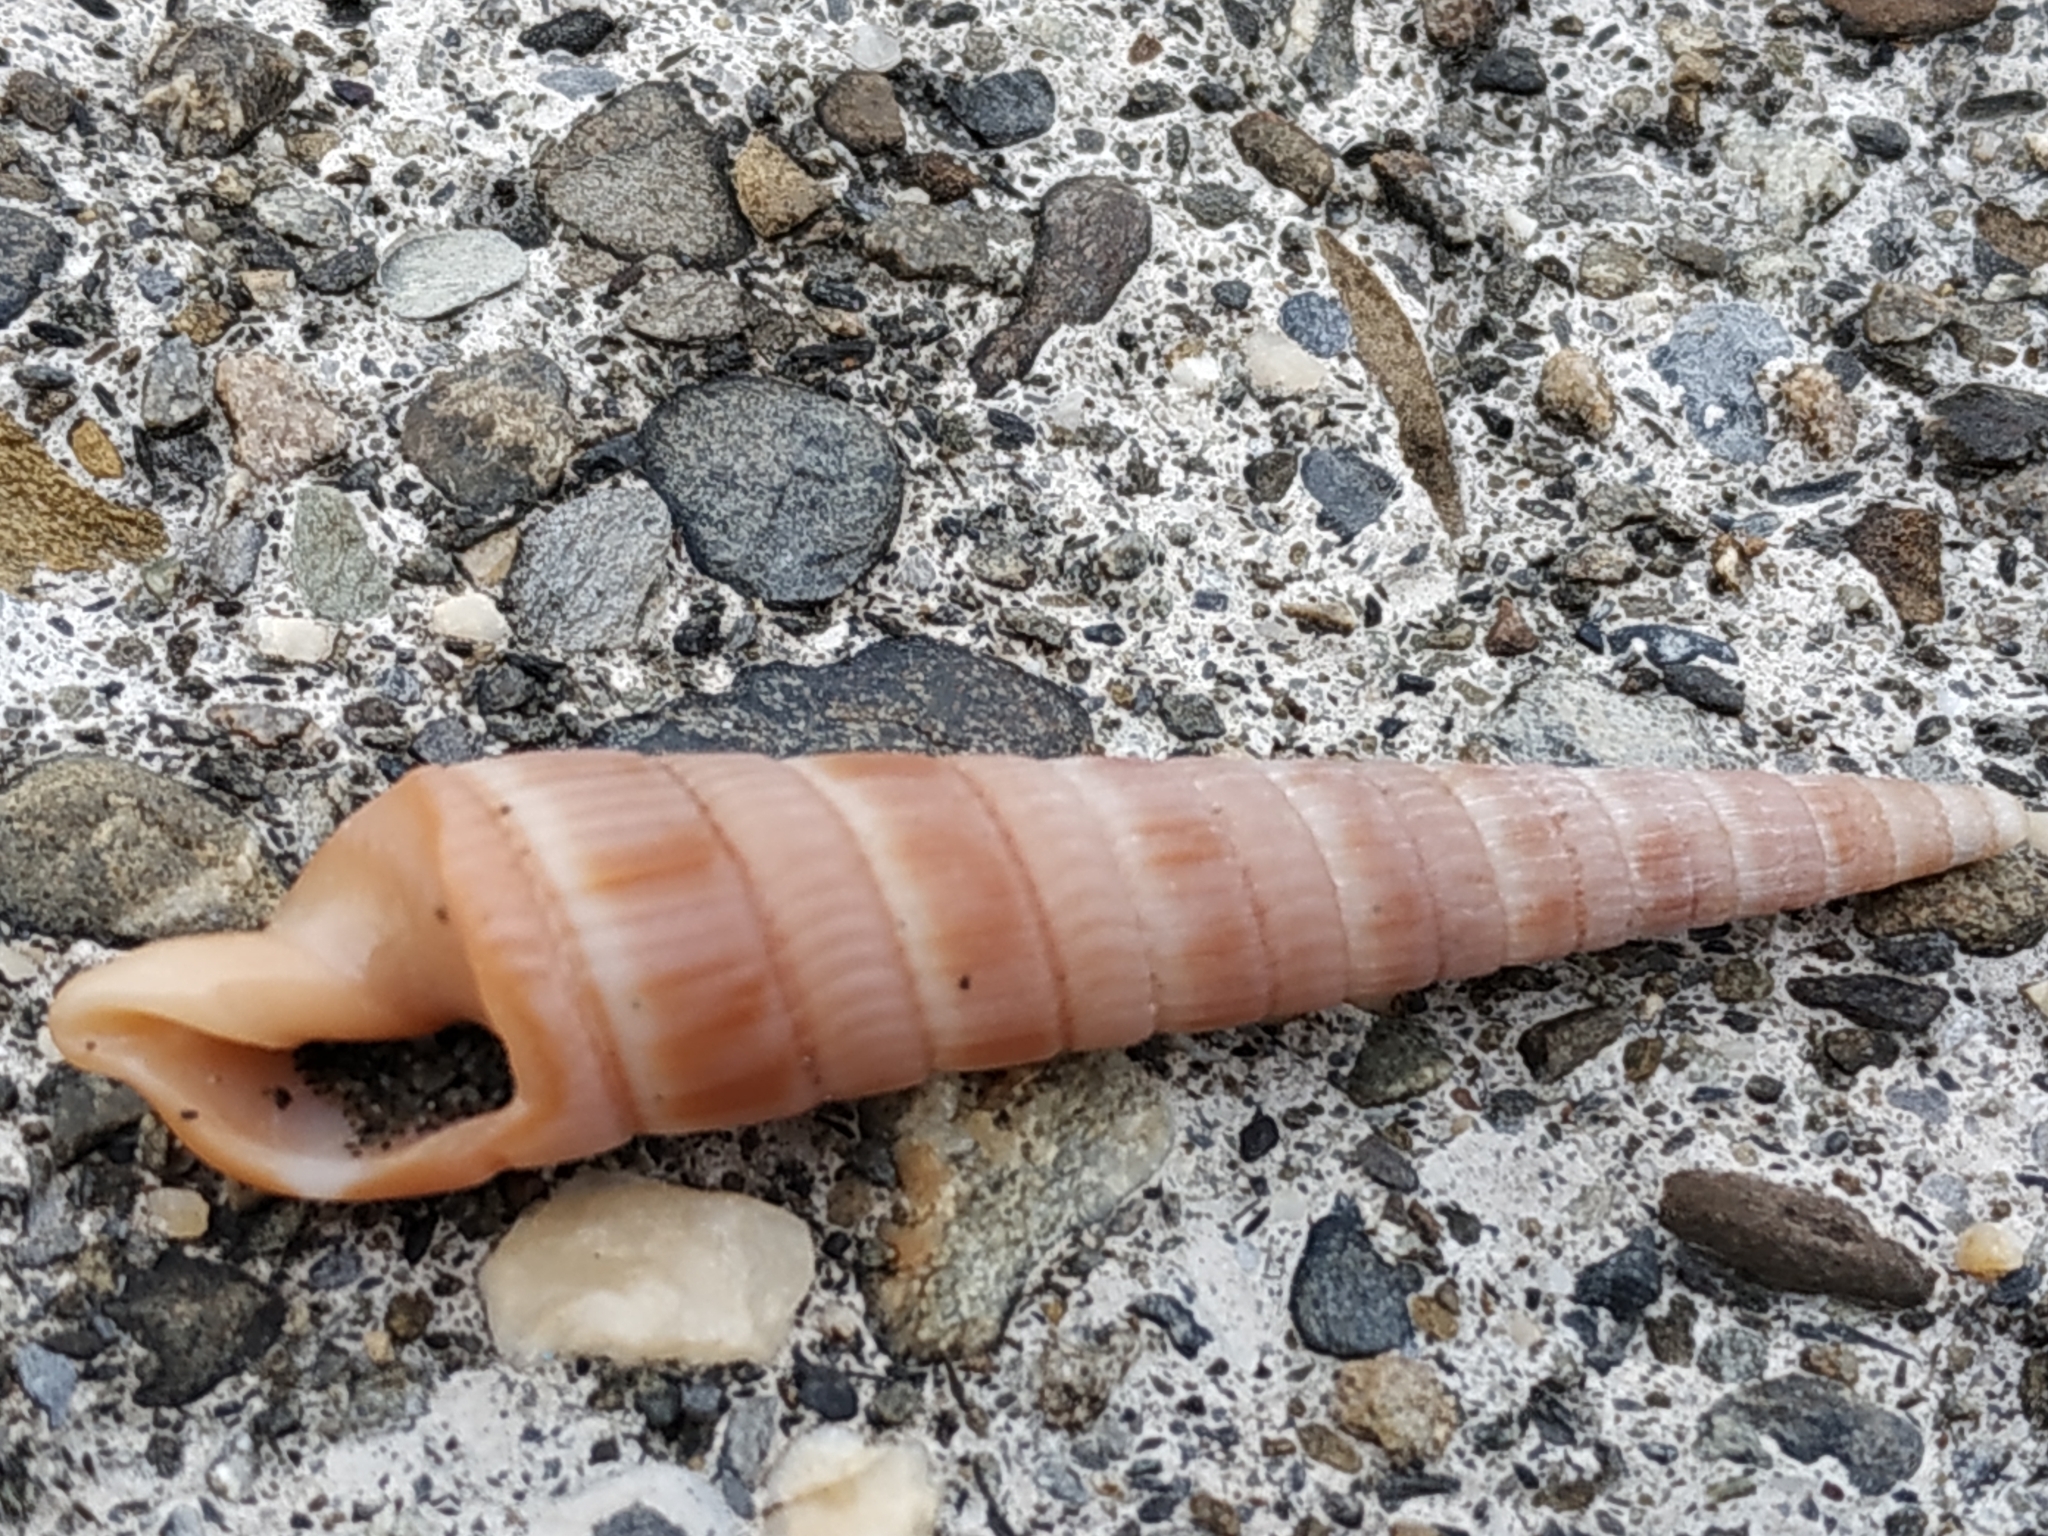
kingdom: Animalia
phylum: Mollusca
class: Gastropoda
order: Neogastropoda
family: Terebridae
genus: Duplicaria
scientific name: Duplicaria duplicata
